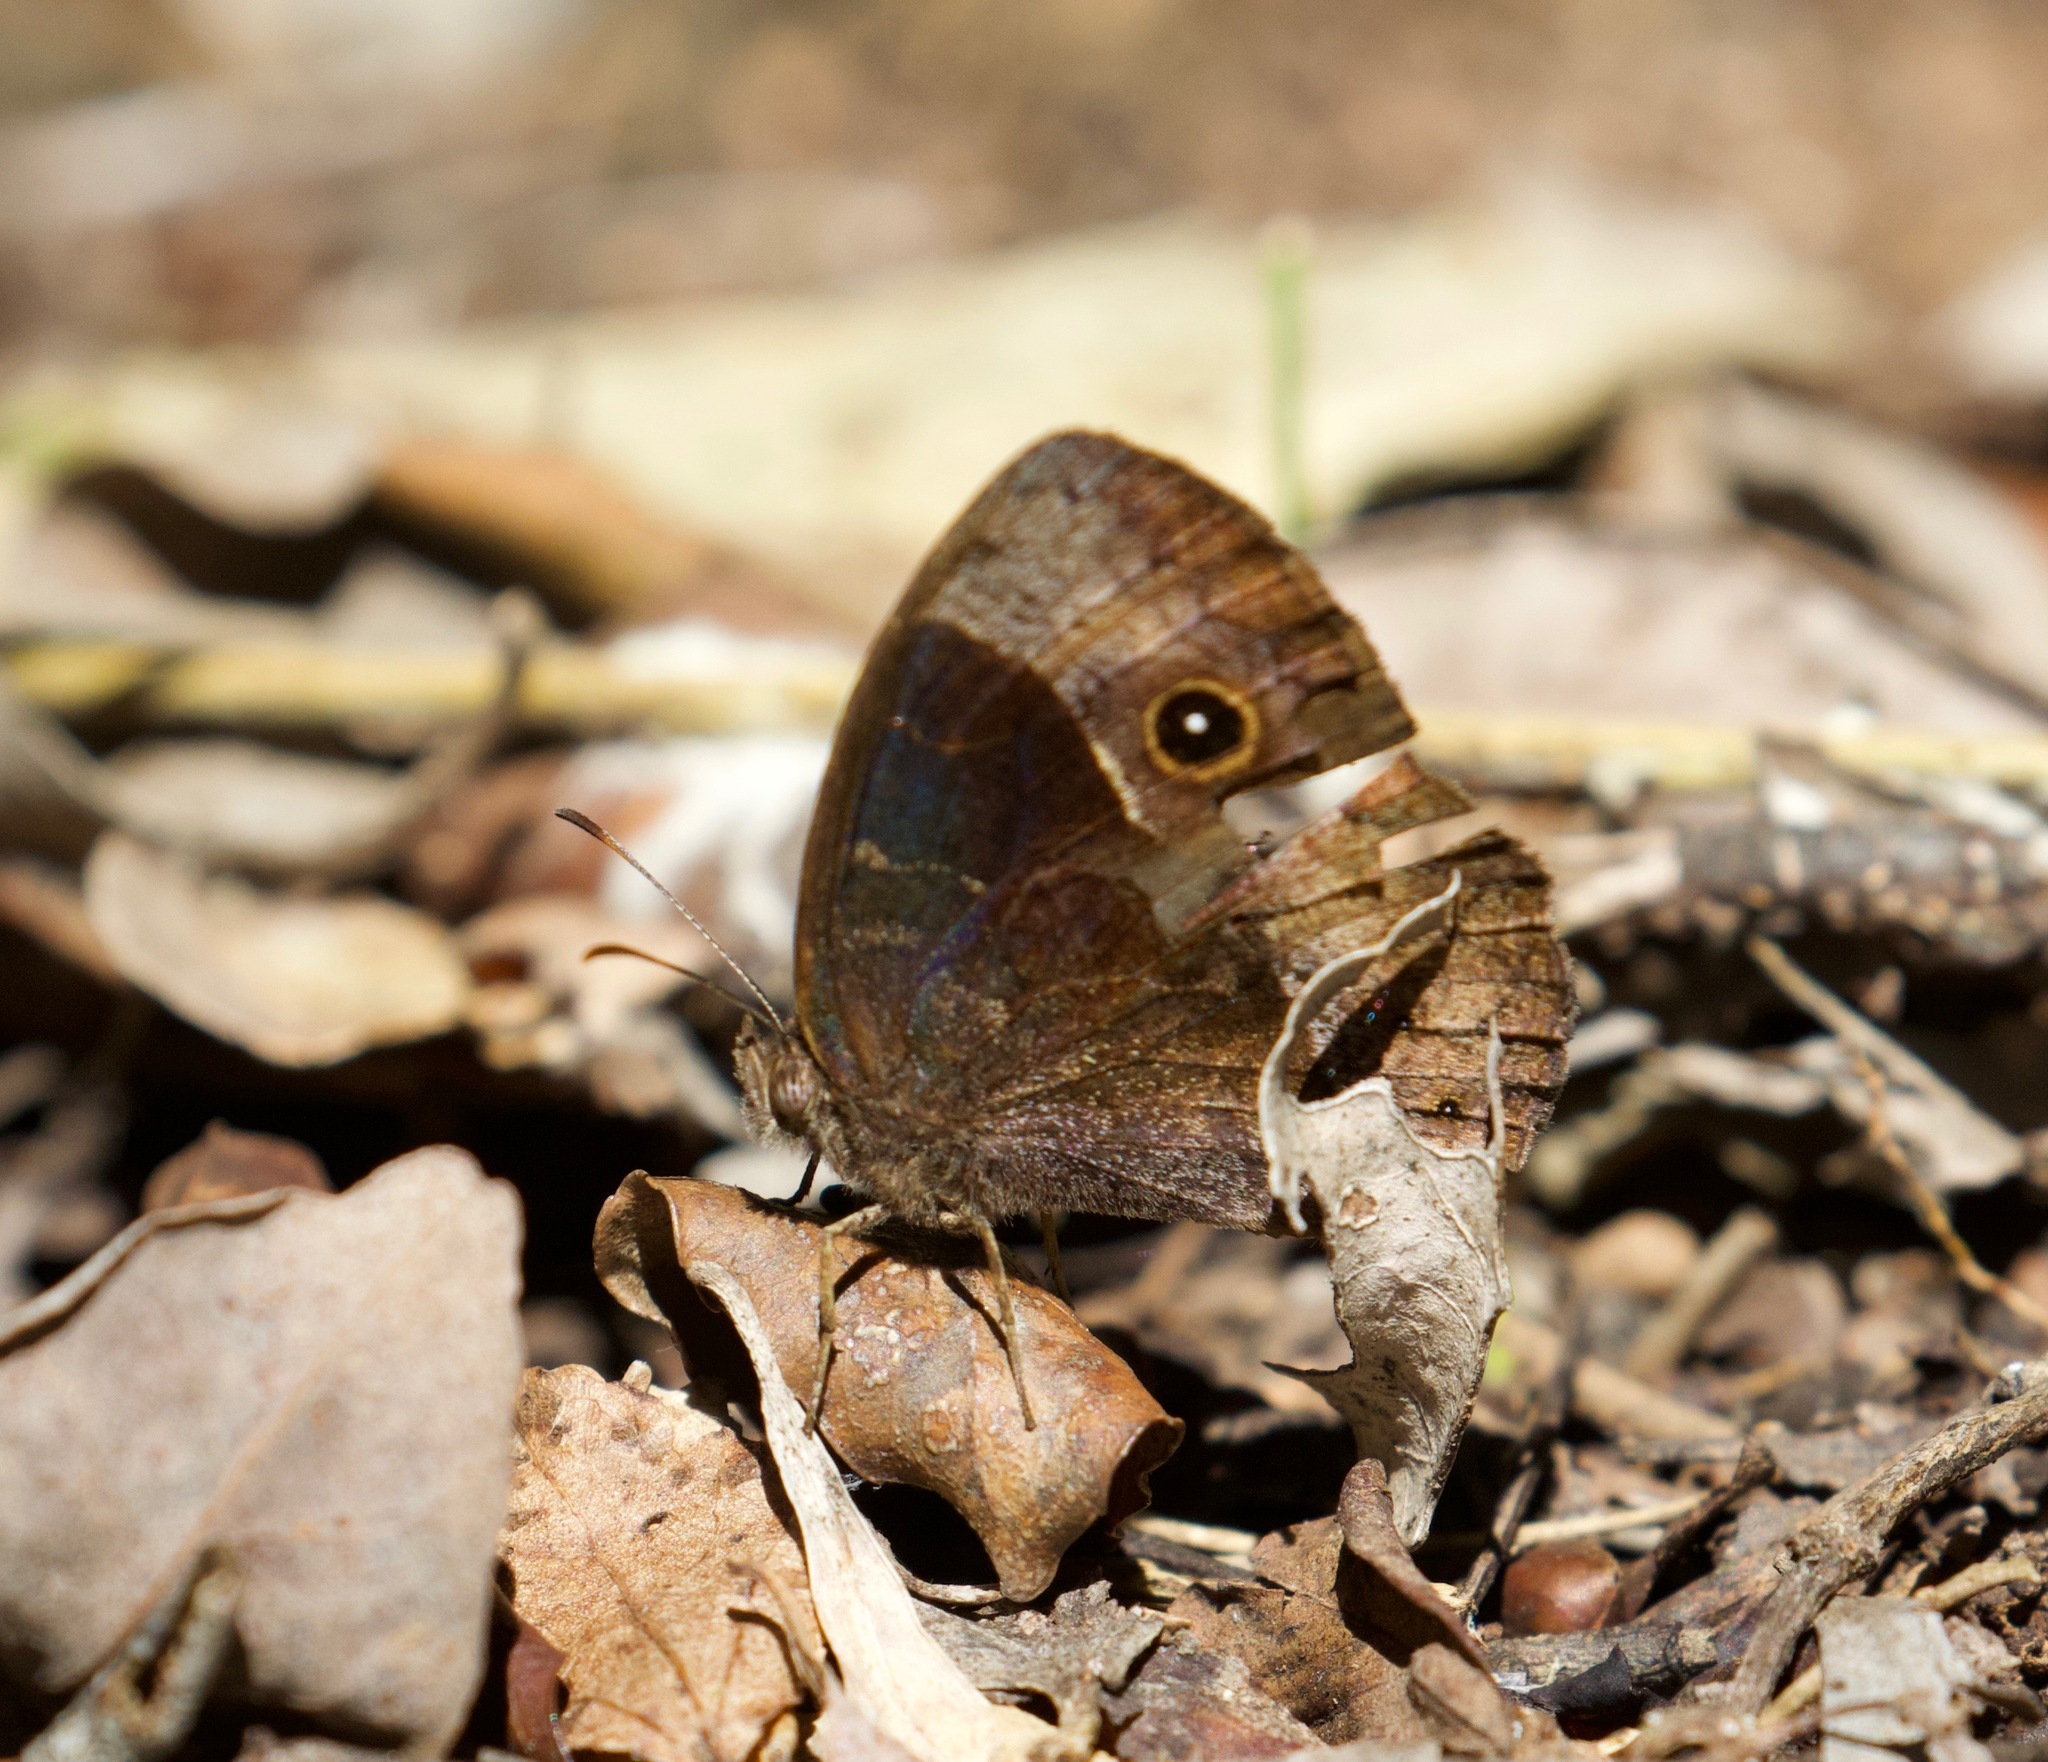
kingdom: Animalia
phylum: Arthropoda
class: Insecta
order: Lepidoptera
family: Nymphalidae
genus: Mycalesis
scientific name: Mycalesis rhacotis
